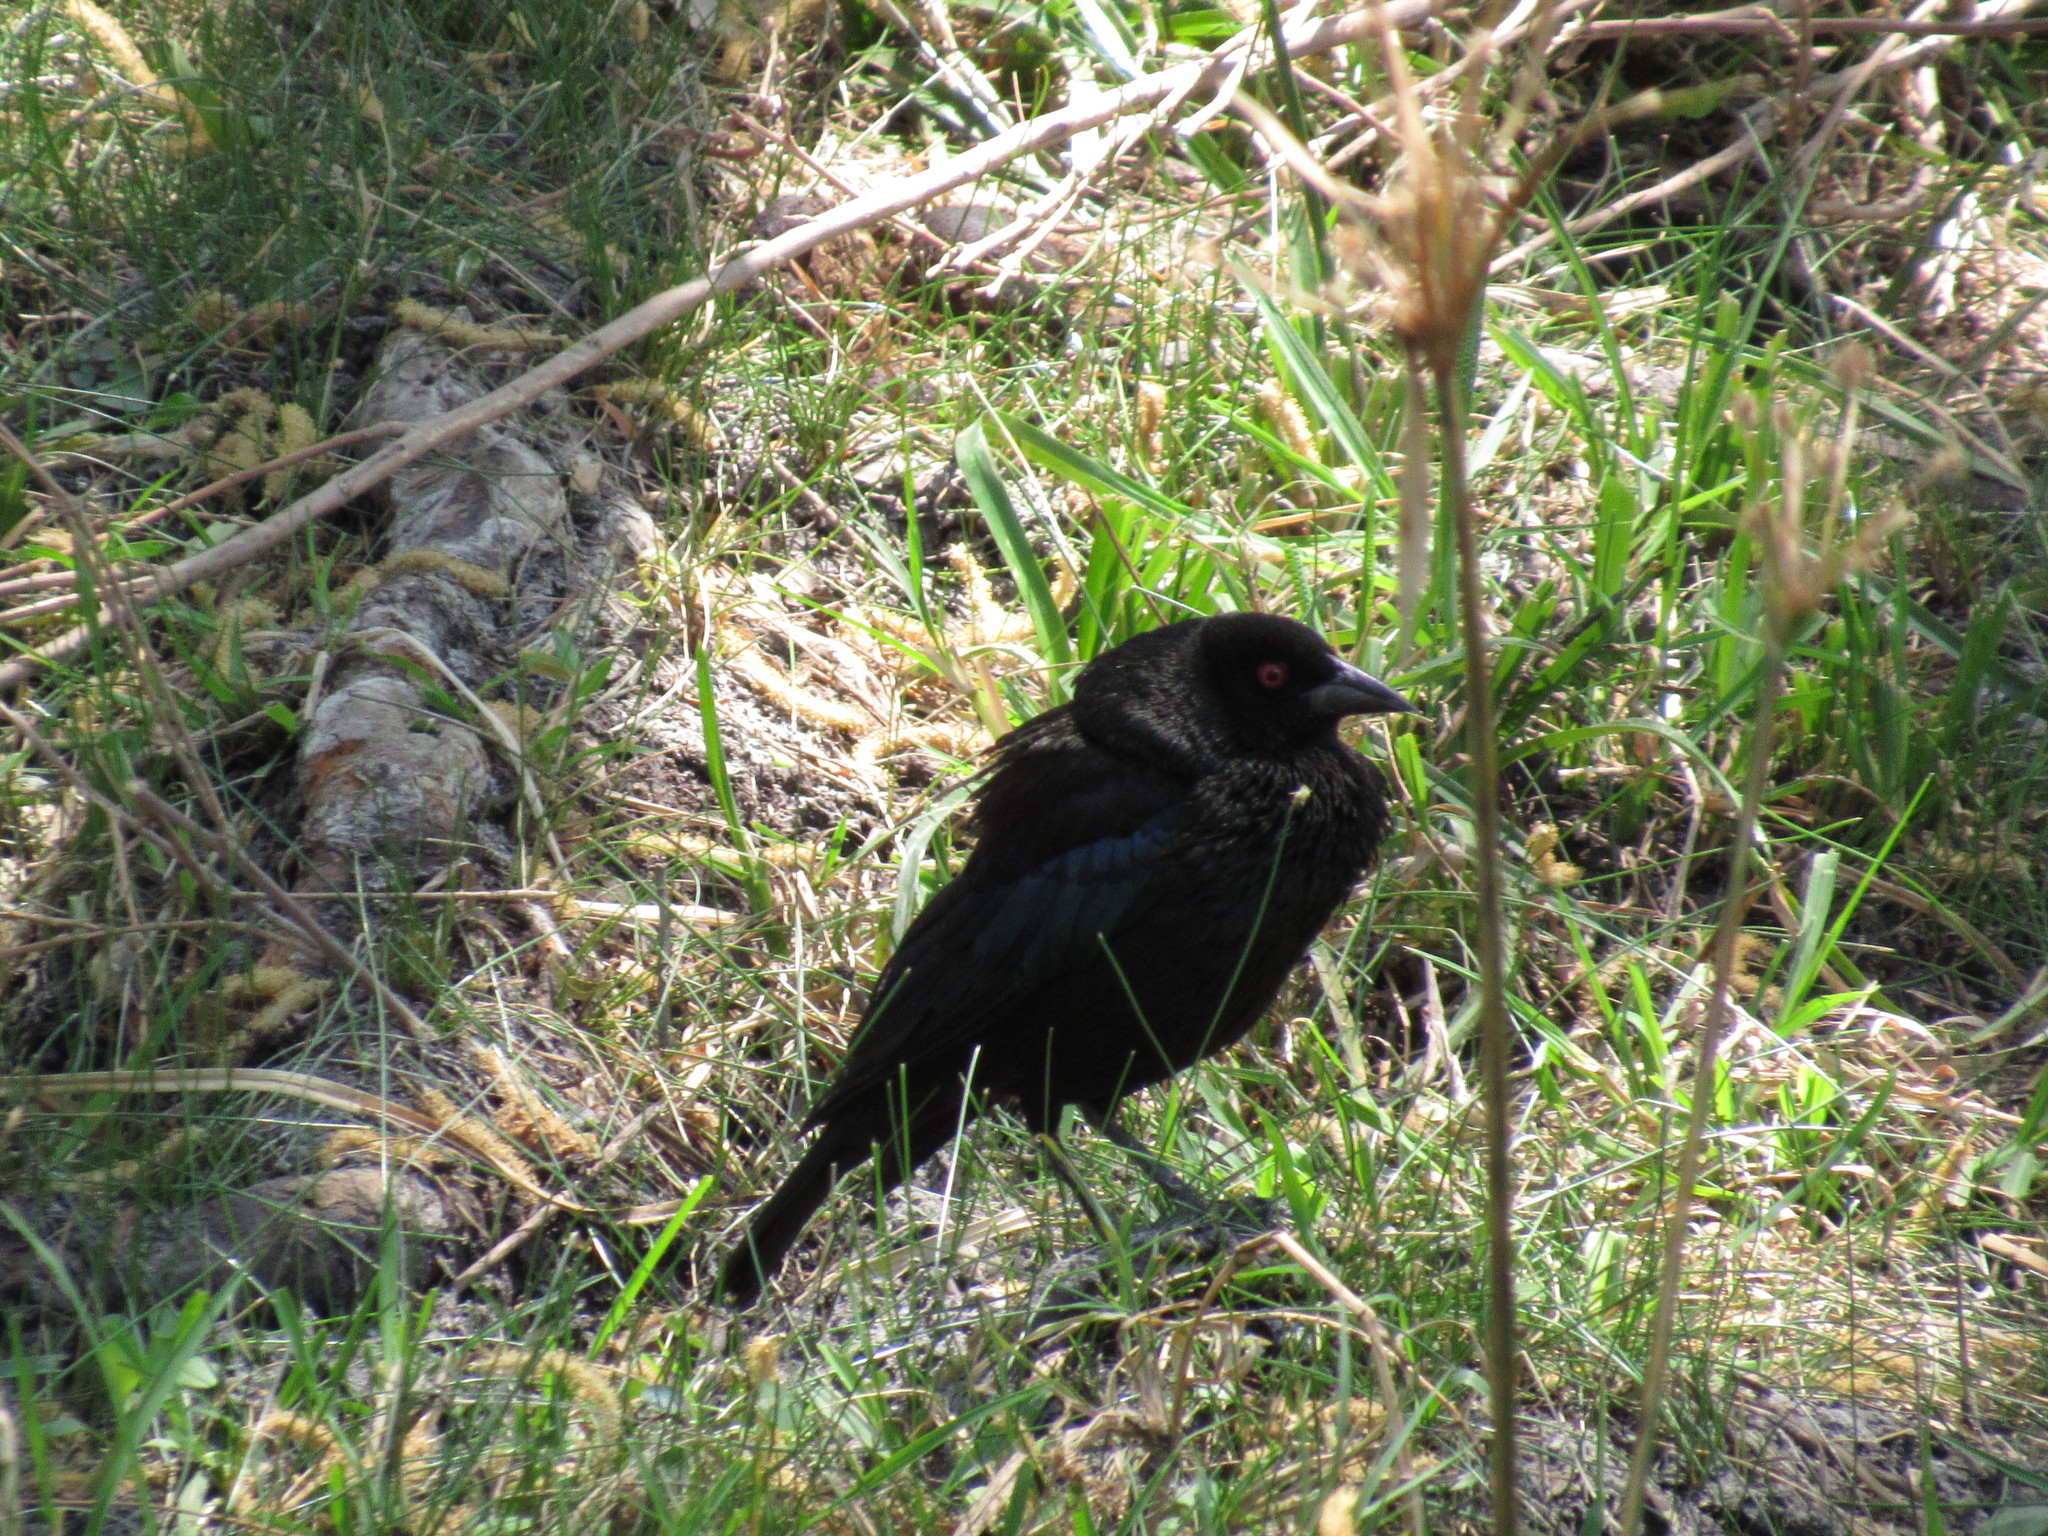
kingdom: Animalia
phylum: Chordata
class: Aves
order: Passeriformes
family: Icteridae
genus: Molothrus
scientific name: Molothrus aeneus
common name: Bronzed cowbird
